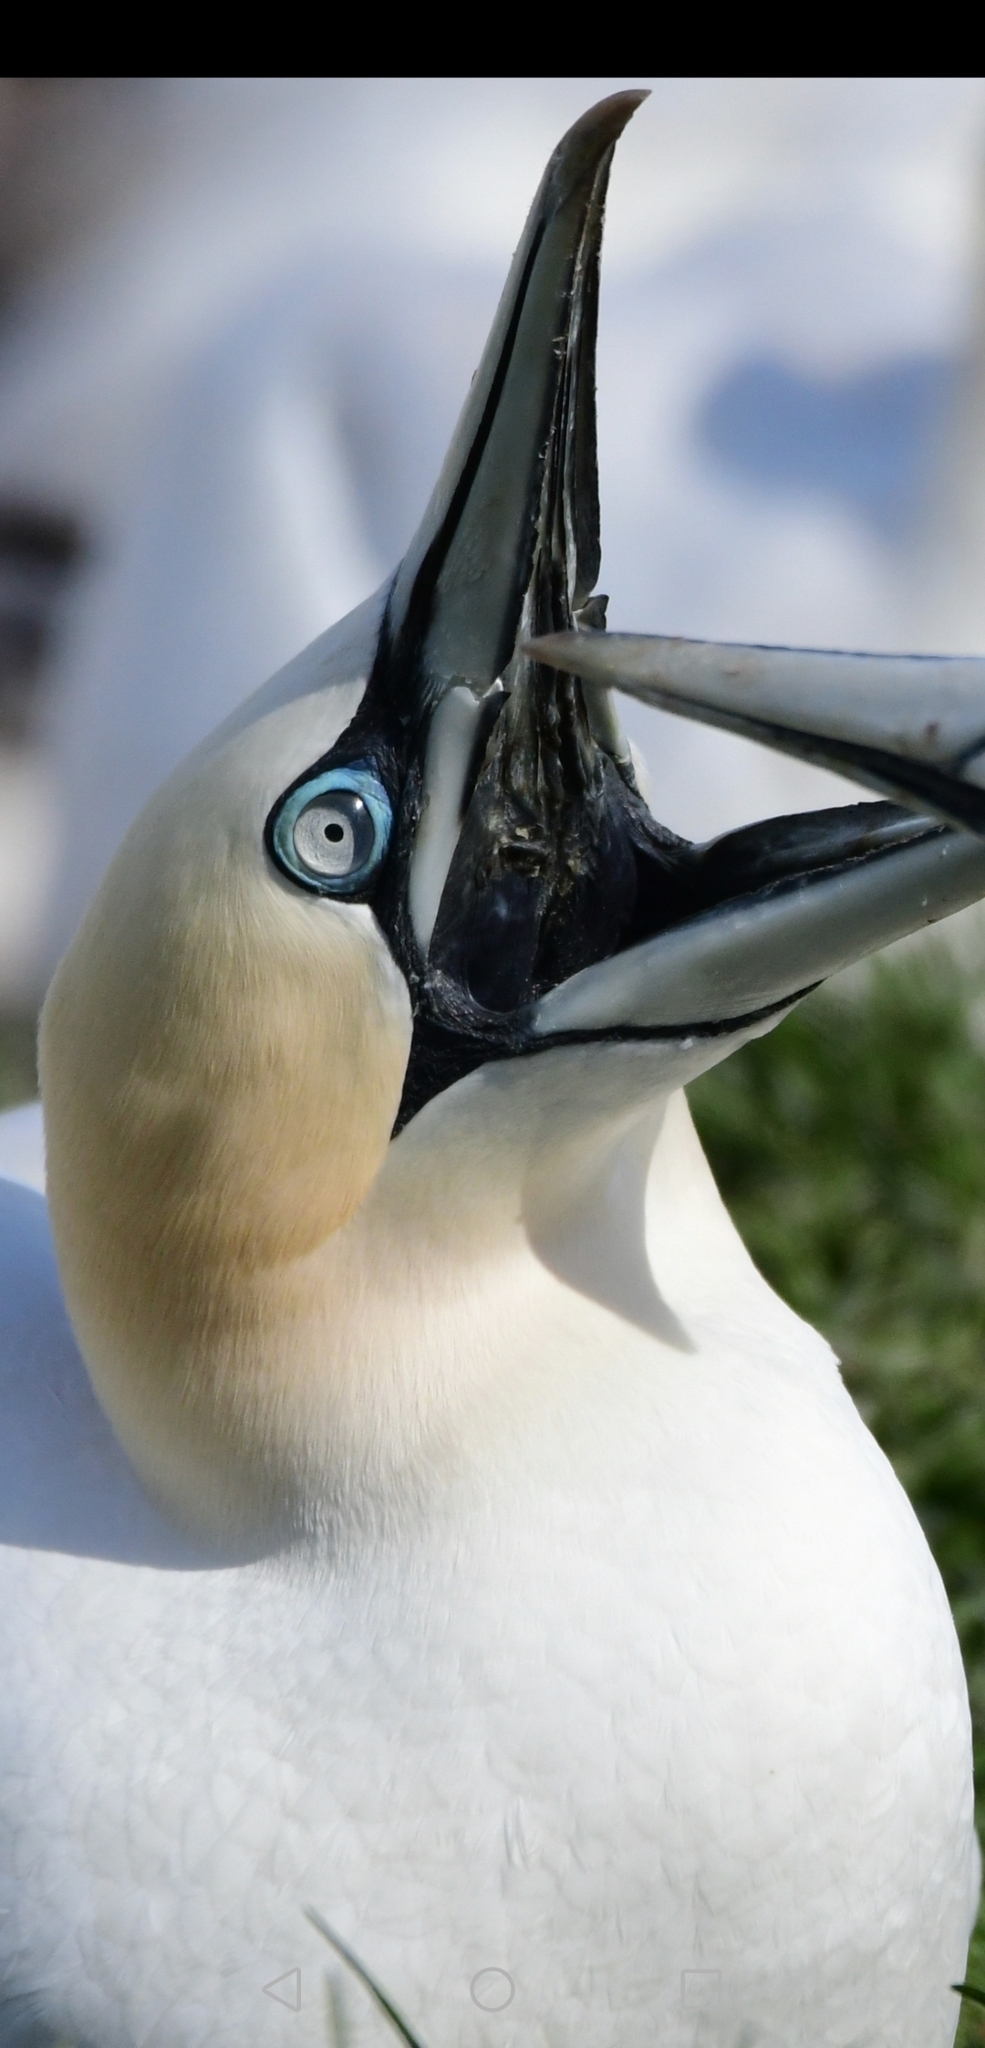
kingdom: Animalia
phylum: Chordata
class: Aves
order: Suliformes
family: Sulidae
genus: Morus
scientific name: Morus bassanus
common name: Northern gannet
